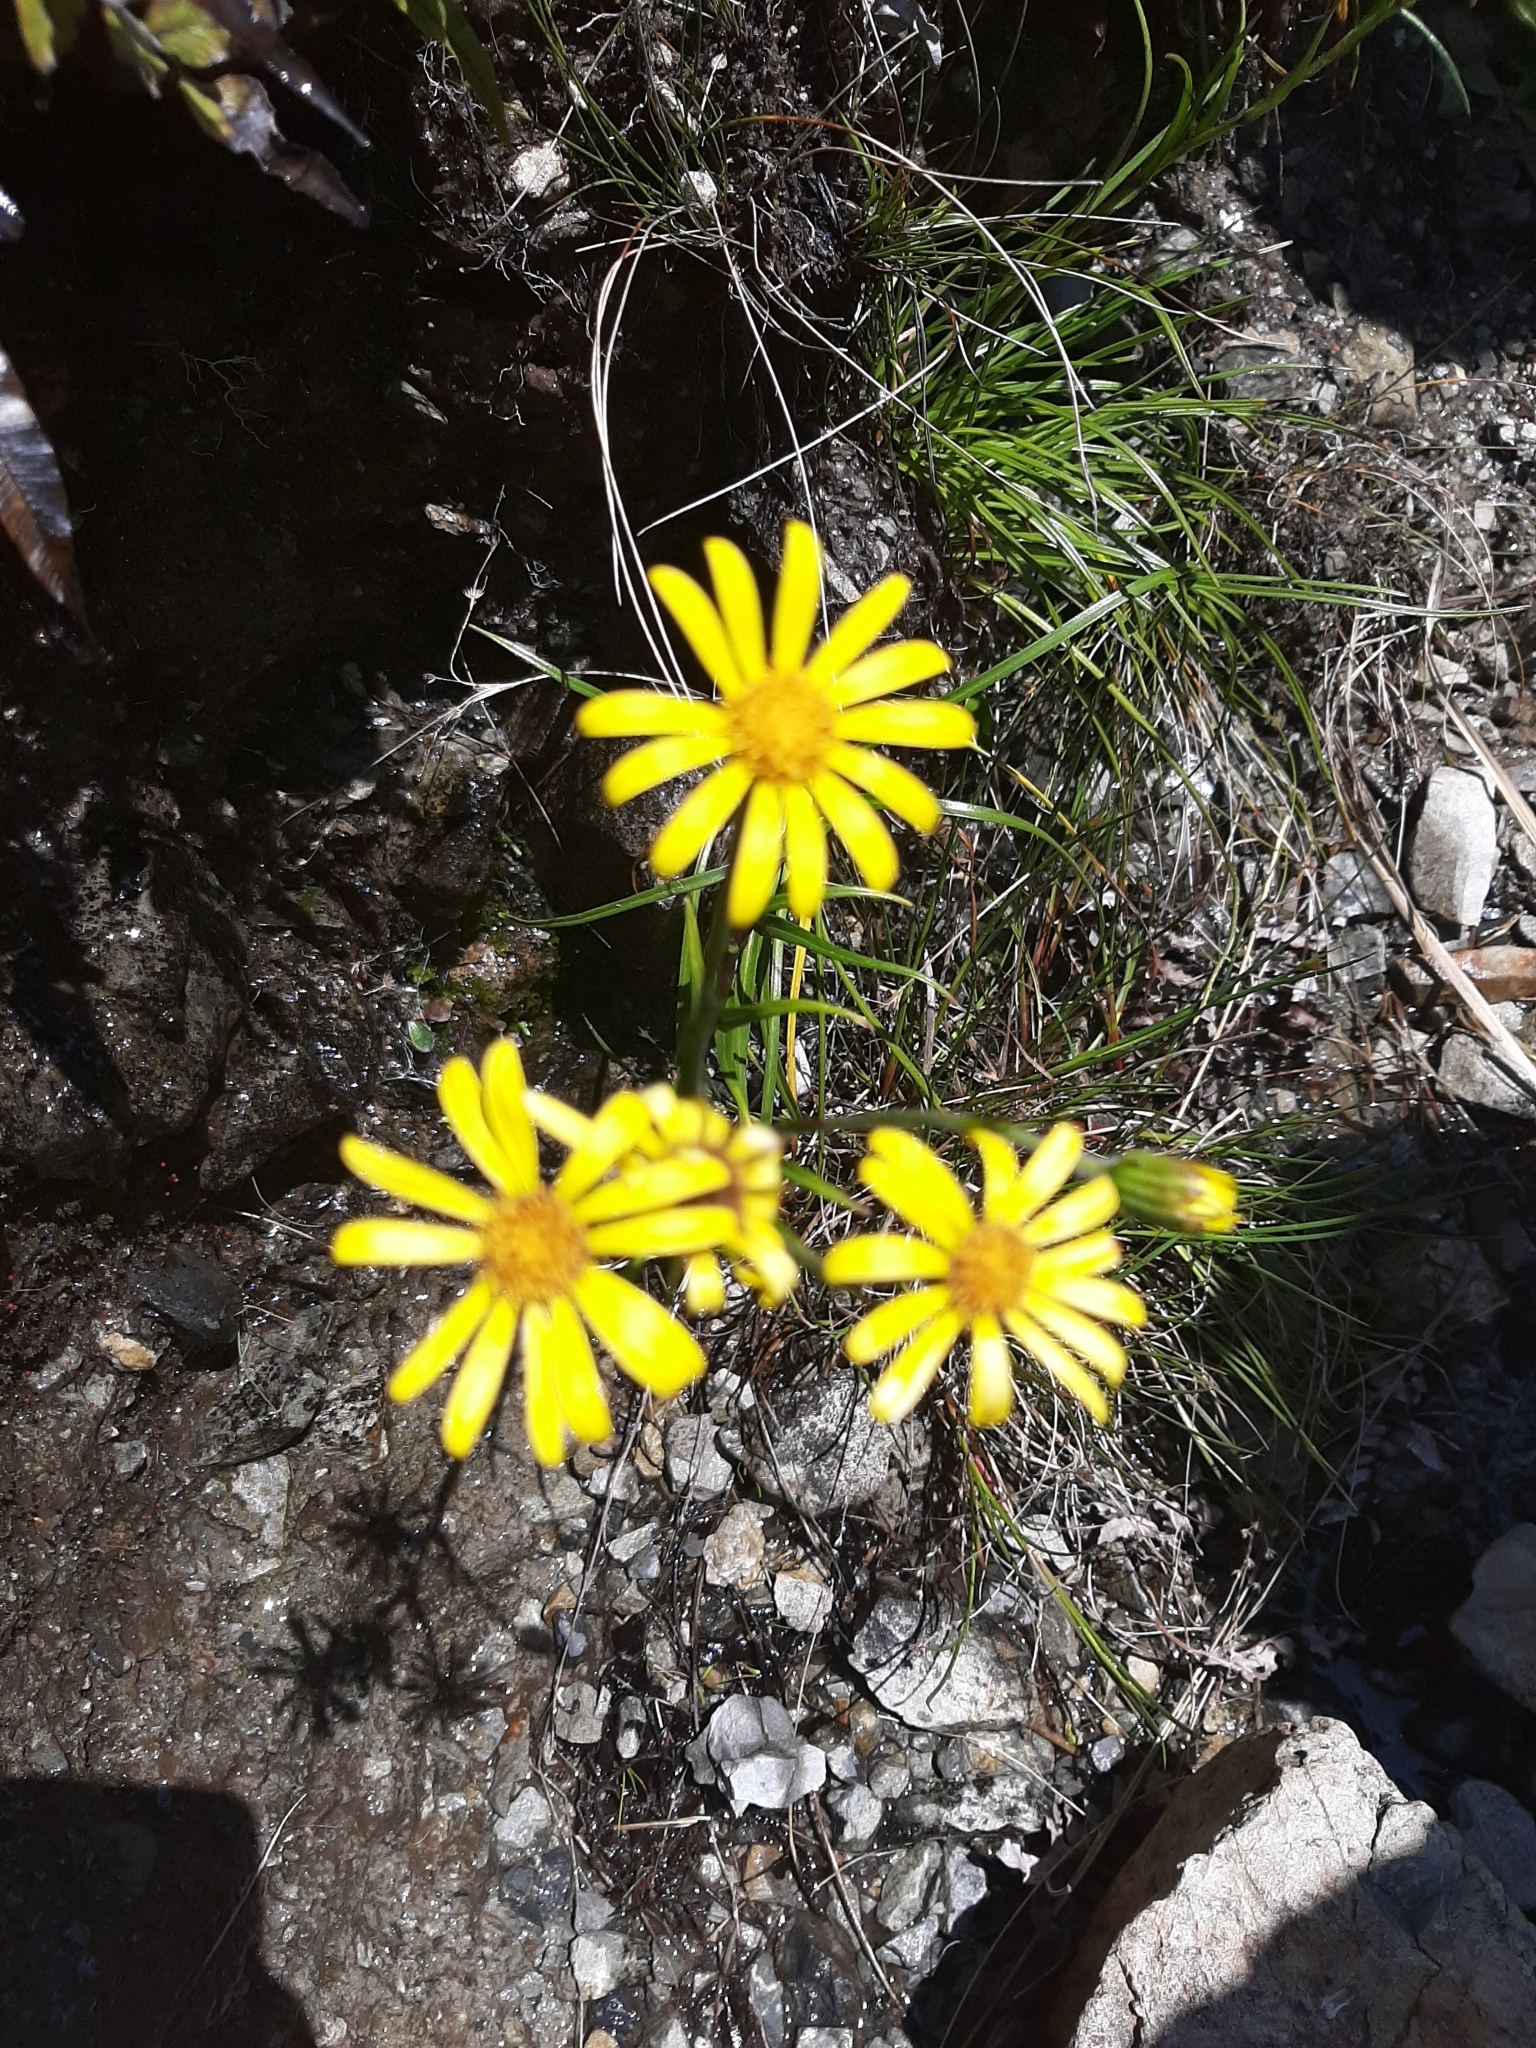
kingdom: Plantae
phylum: Tracheophyta
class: Magnoliopsida
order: Asterales
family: Asteraceae
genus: Dolichoglottis
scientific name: Dolichoglottis lyallii
